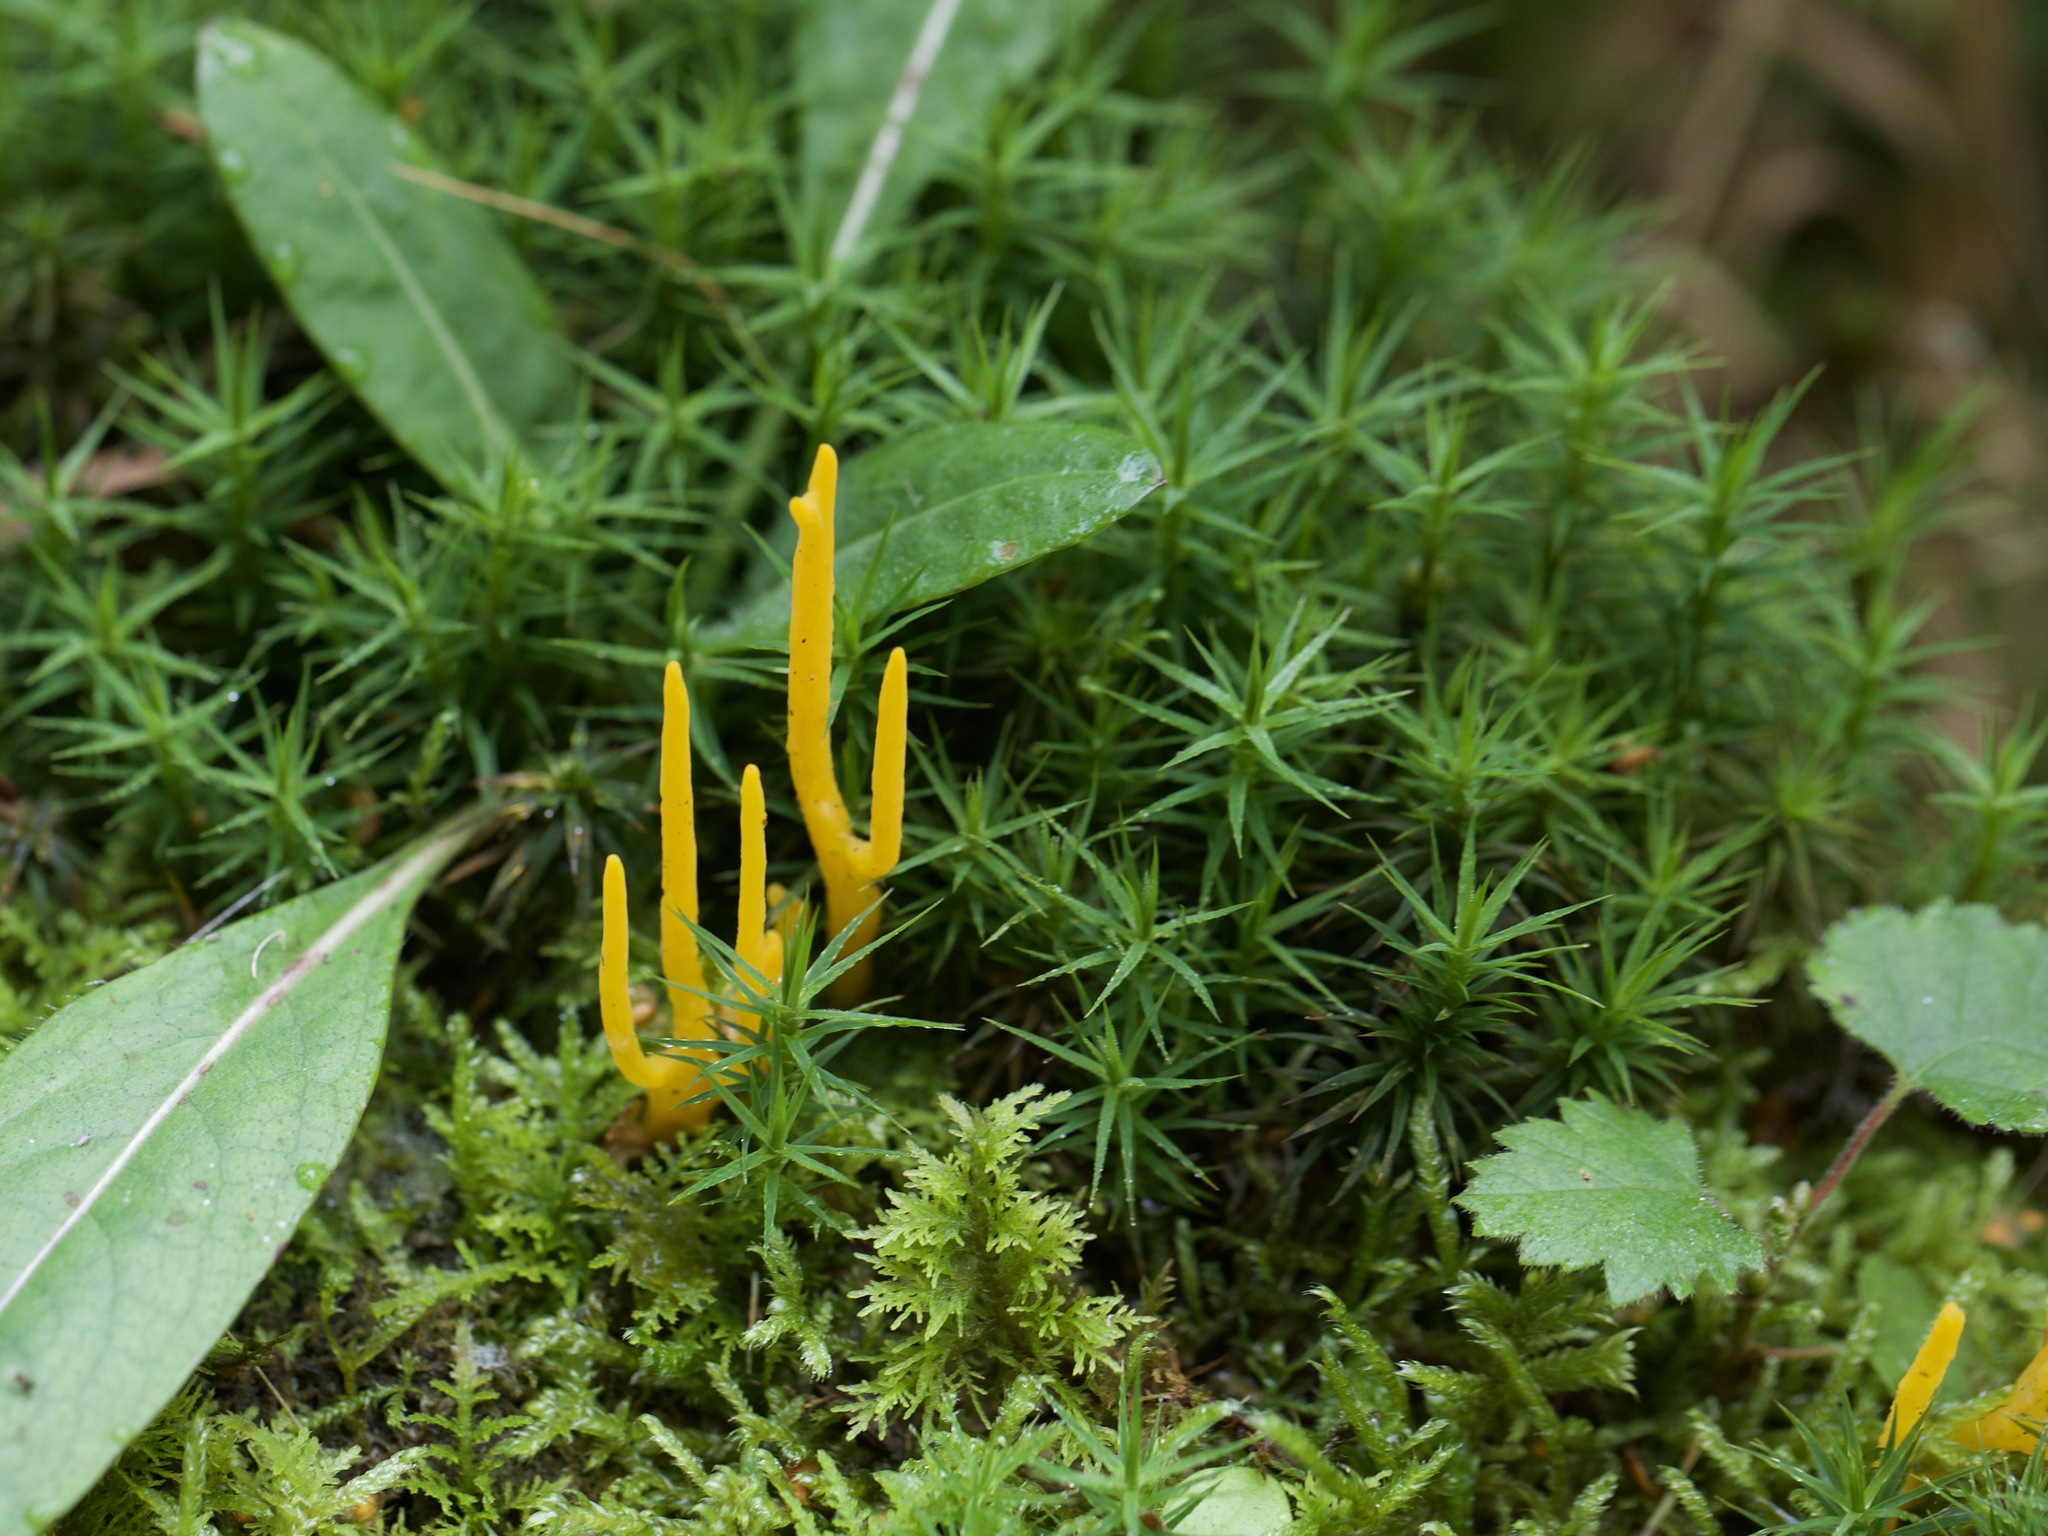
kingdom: Fungi
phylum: Basidiomycota
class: Dacrymycetes
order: Dacrymycetales
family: Dacrymycetaceae
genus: Calocera
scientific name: Calocera viscosa
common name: Yellow stagshorn
